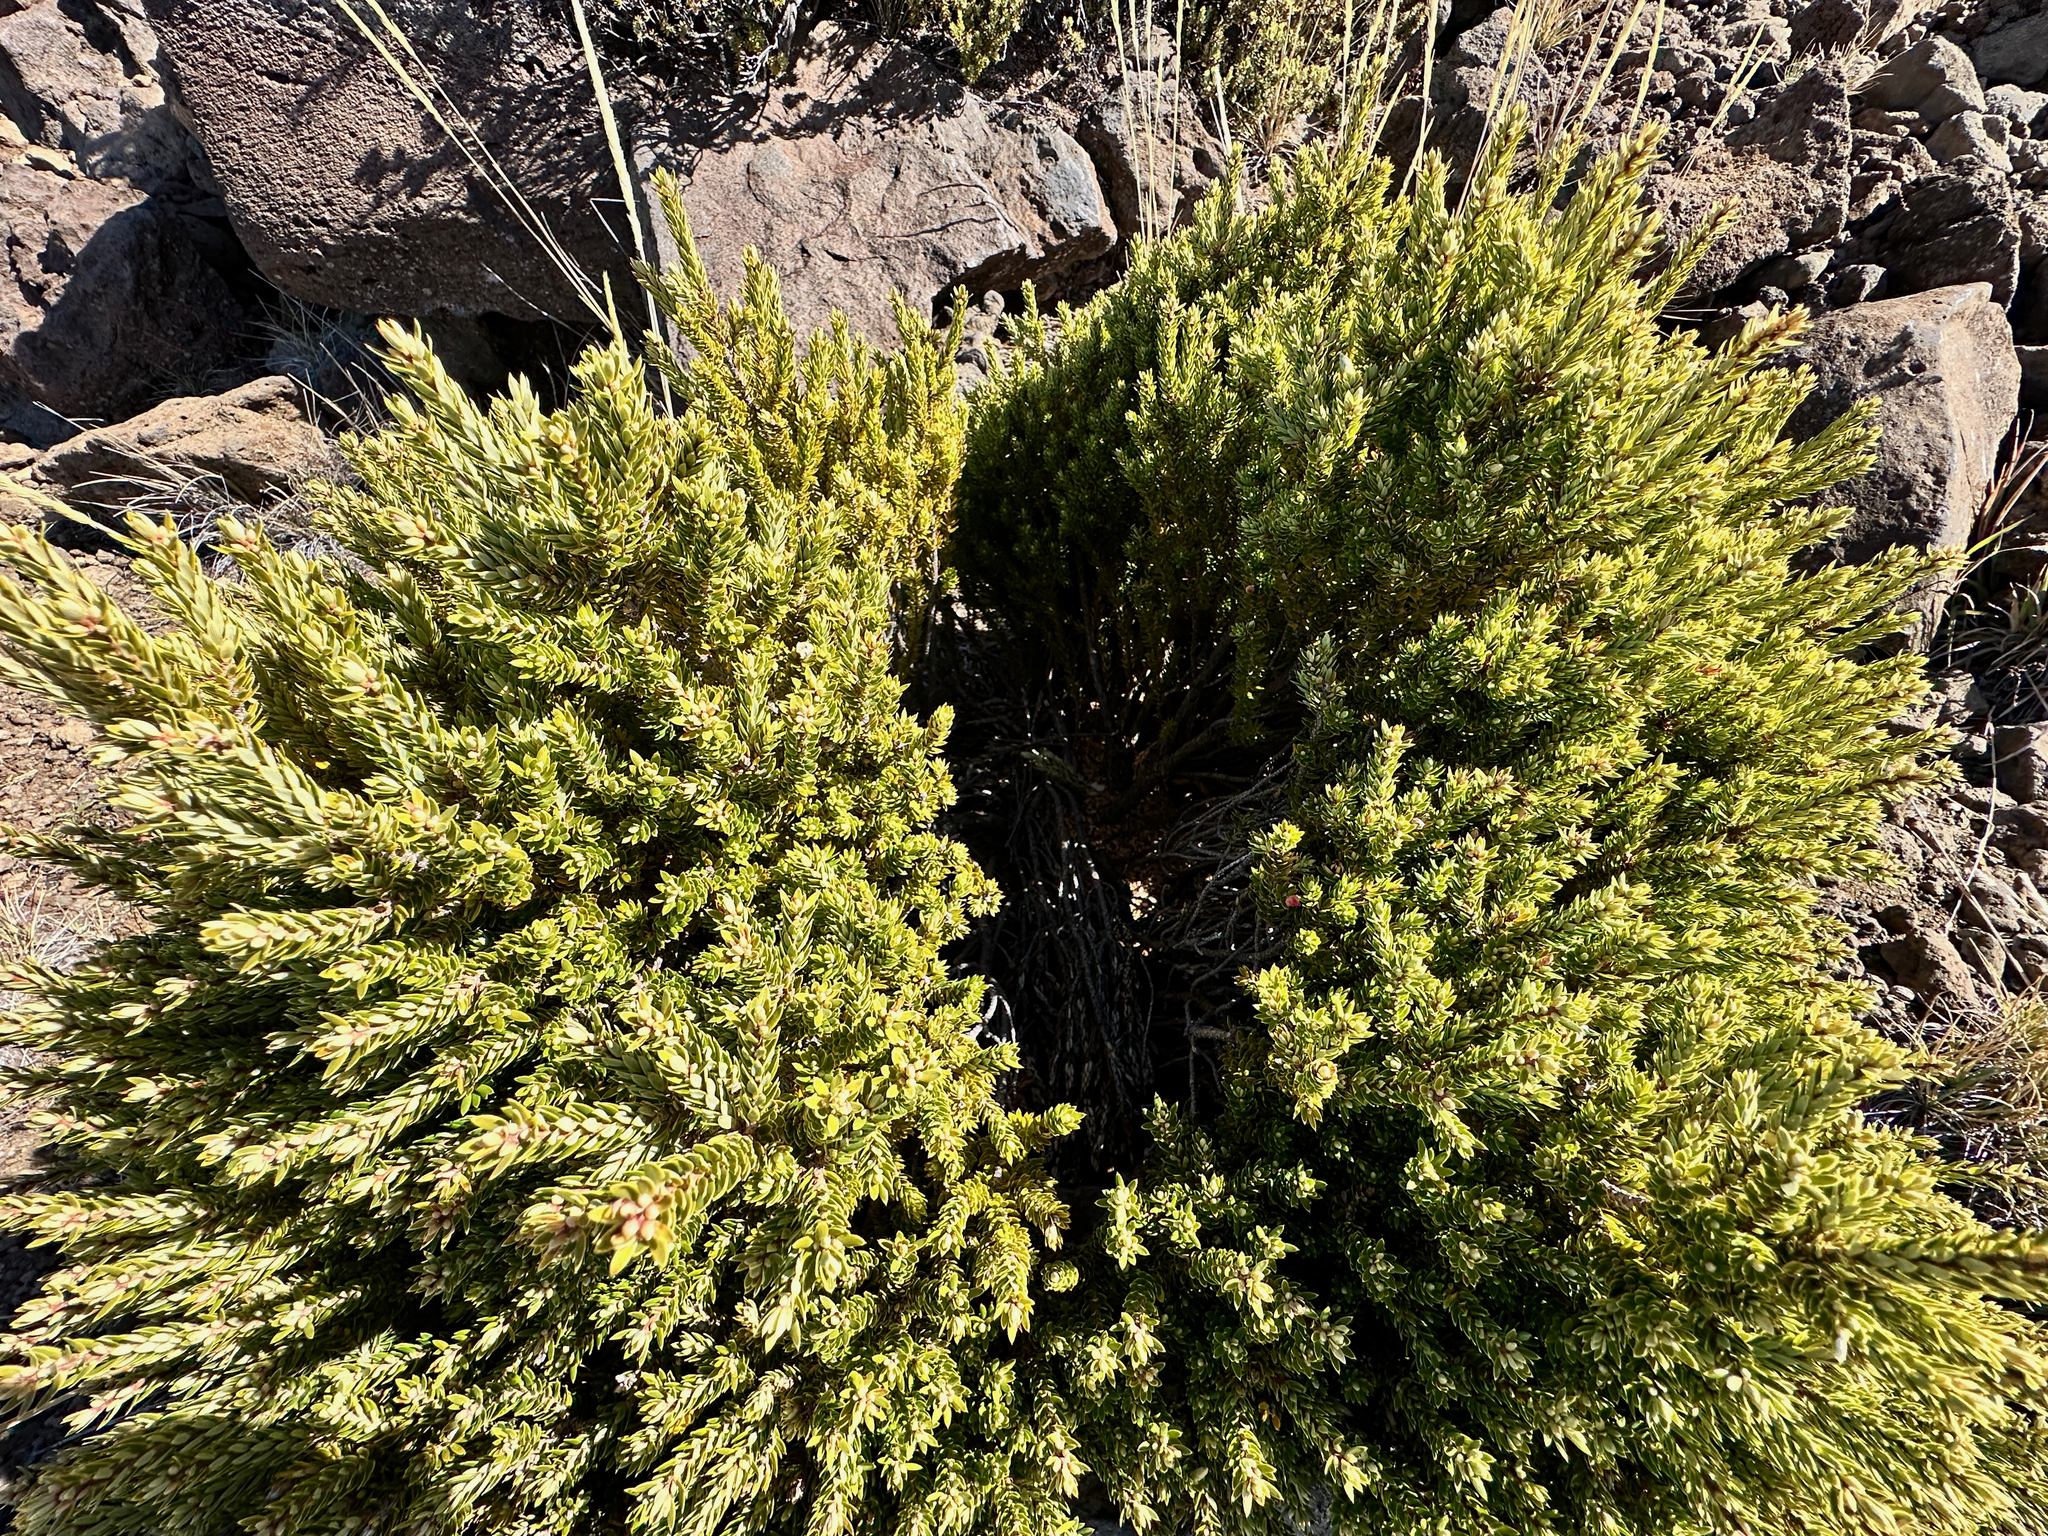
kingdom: Plantae
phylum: Tracheophyta
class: Magnoliopsida
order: Ericales
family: Ericaceae
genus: Leptecophylla
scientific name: Leptecophylla tameiameiae
